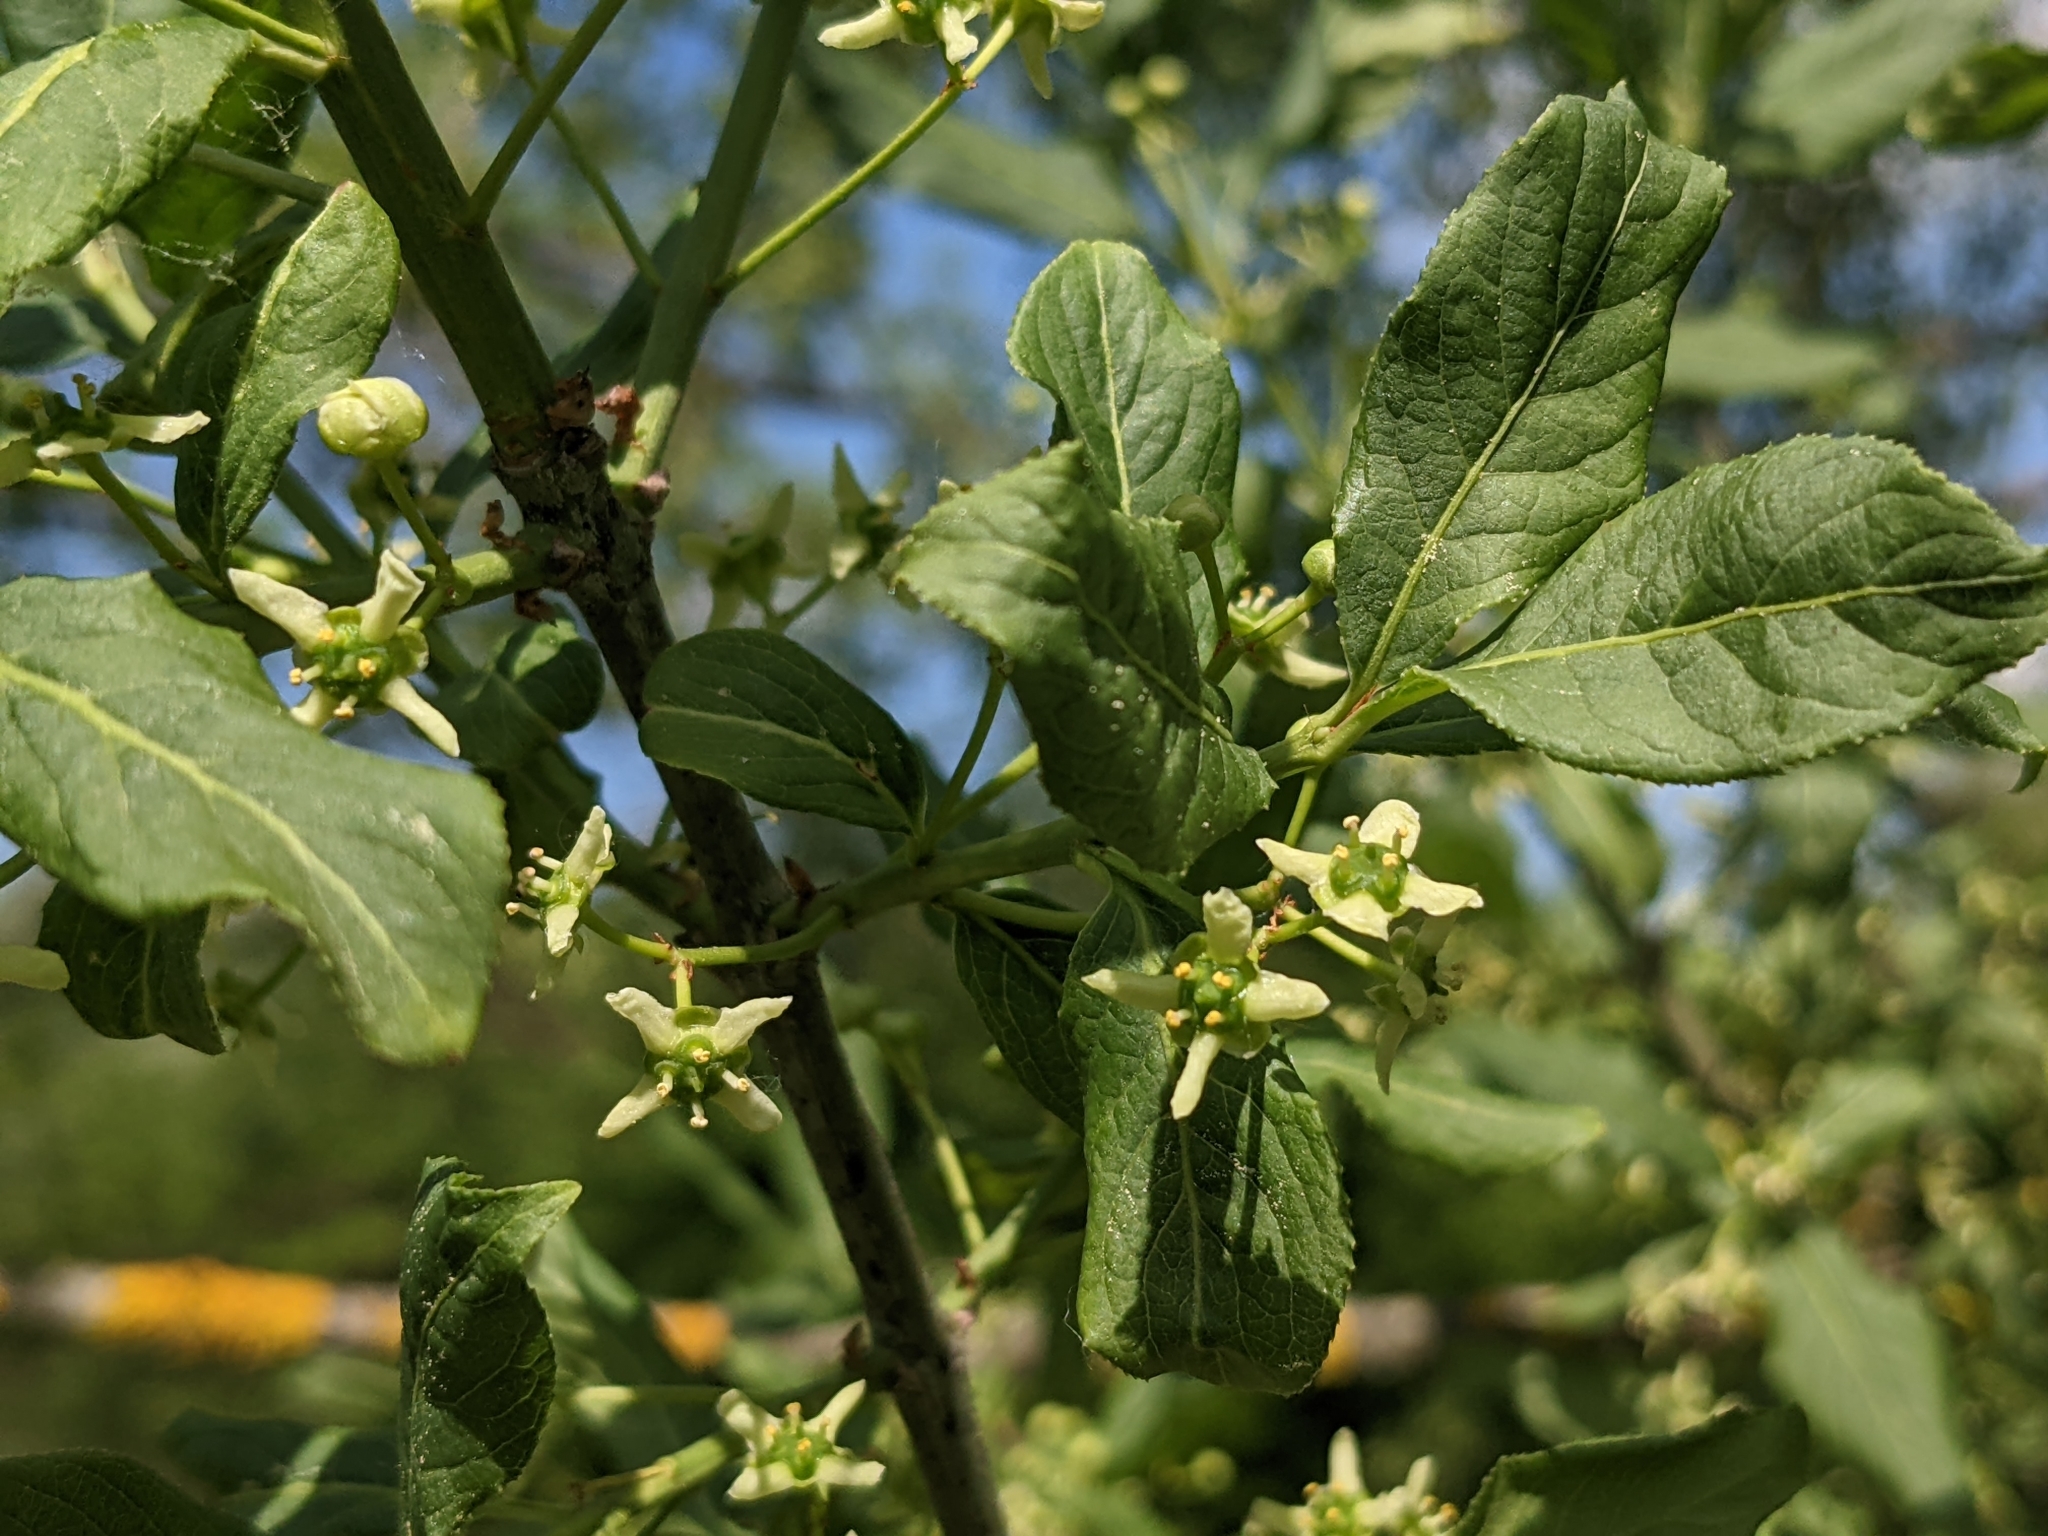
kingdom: Plantae
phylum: Tracheophyta
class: Magnoliopsida
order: Celastrales
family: Celastraceae
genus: Euonymus
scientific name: Euonymus europaeus
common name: Spindle
